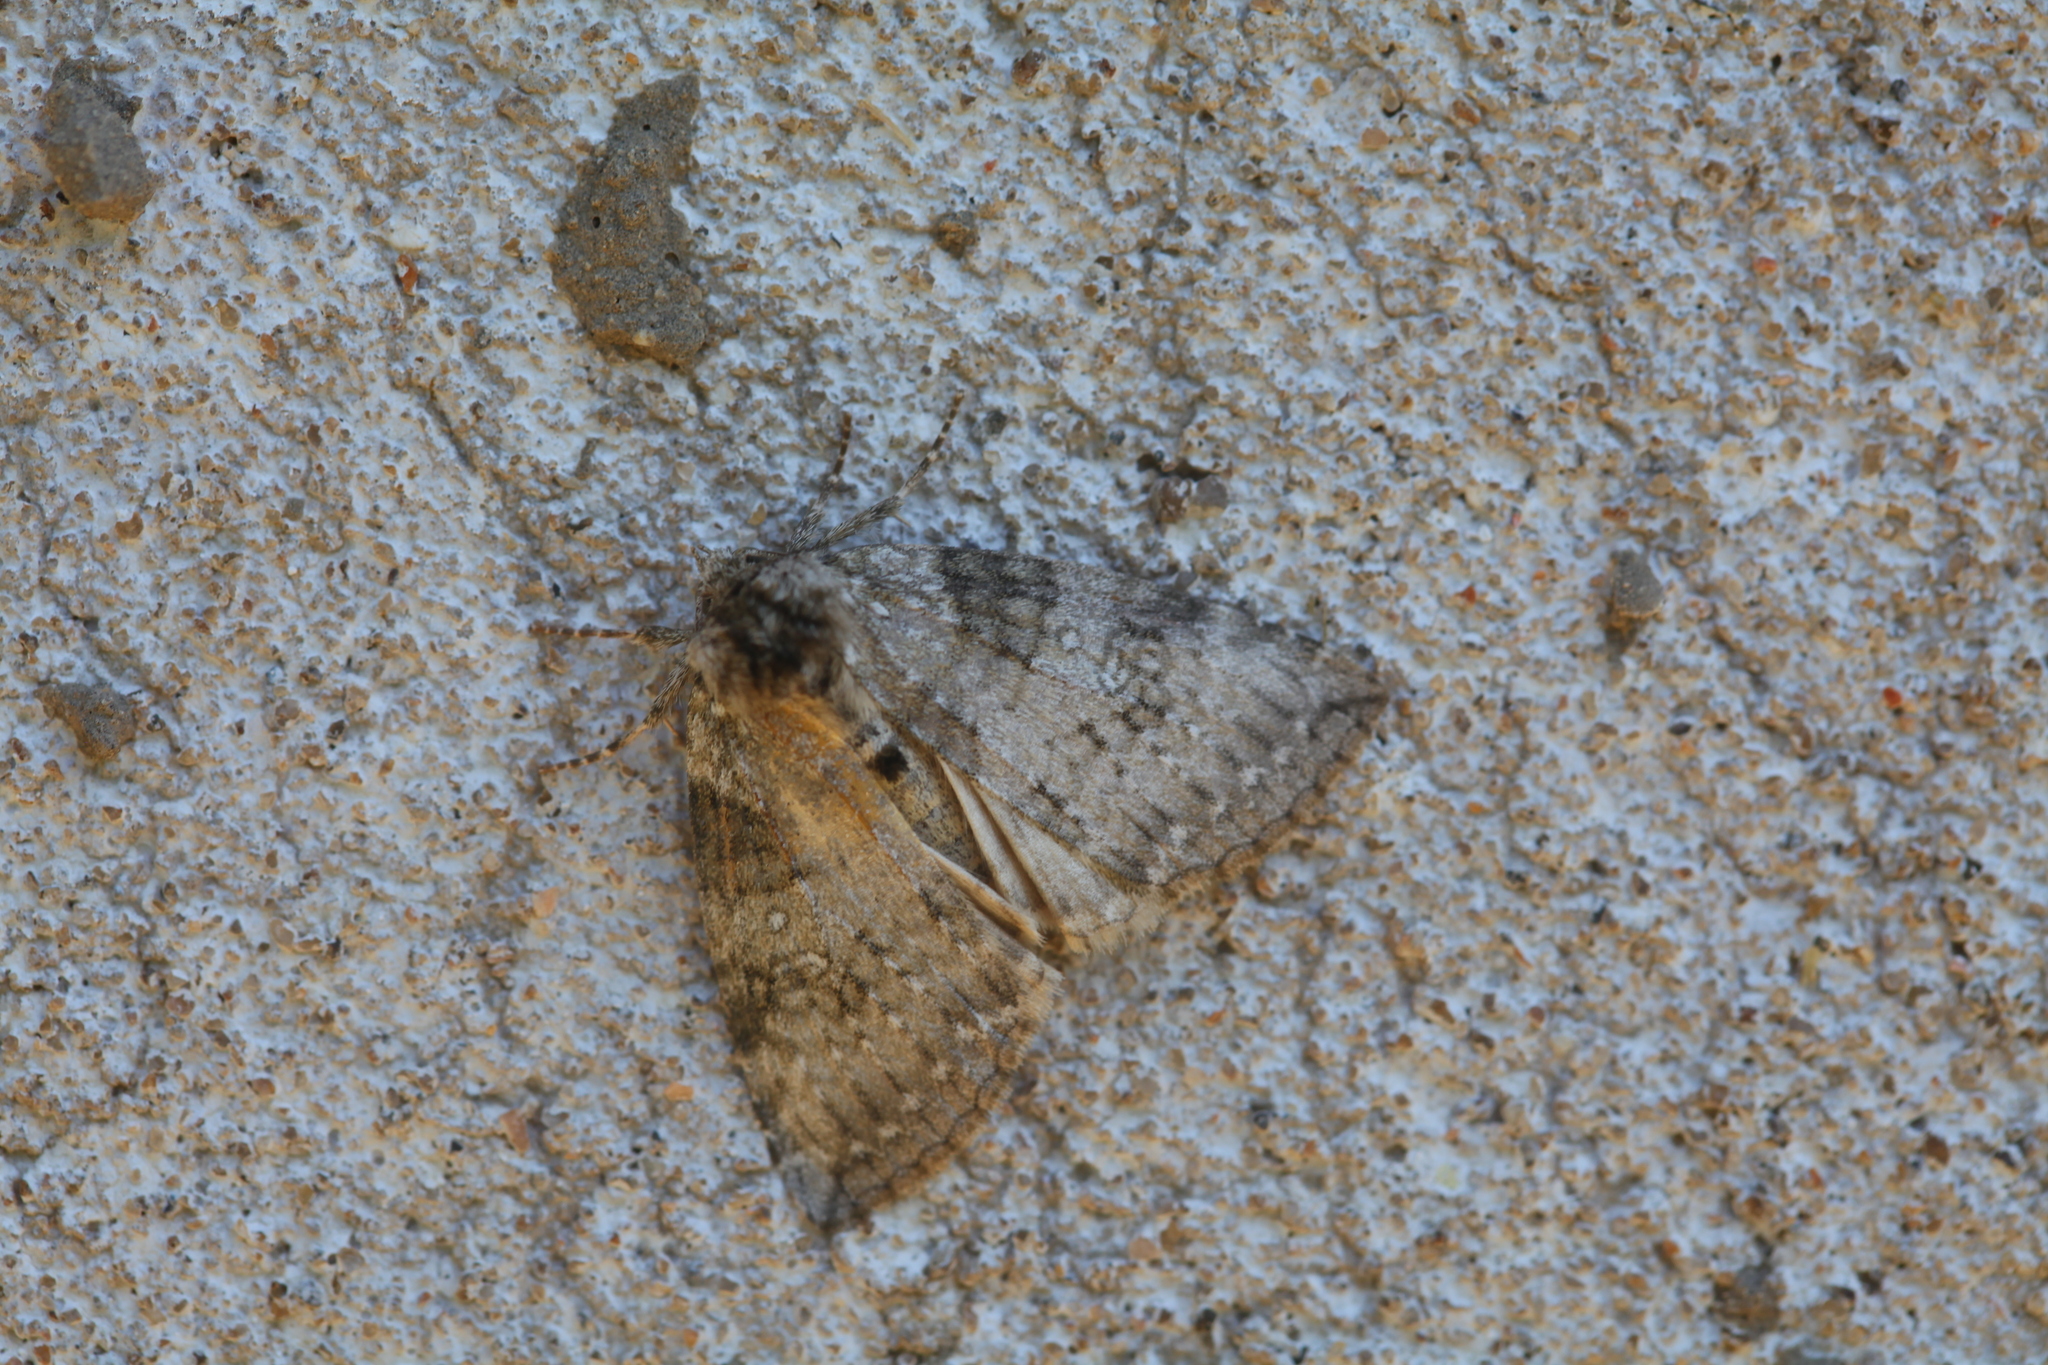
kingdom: Animalia
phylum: Arthropoda
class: Insecta
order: Lepidoptera
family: Drepanidae
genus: Parapsestis
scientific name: Parapsestis argenteopicta
